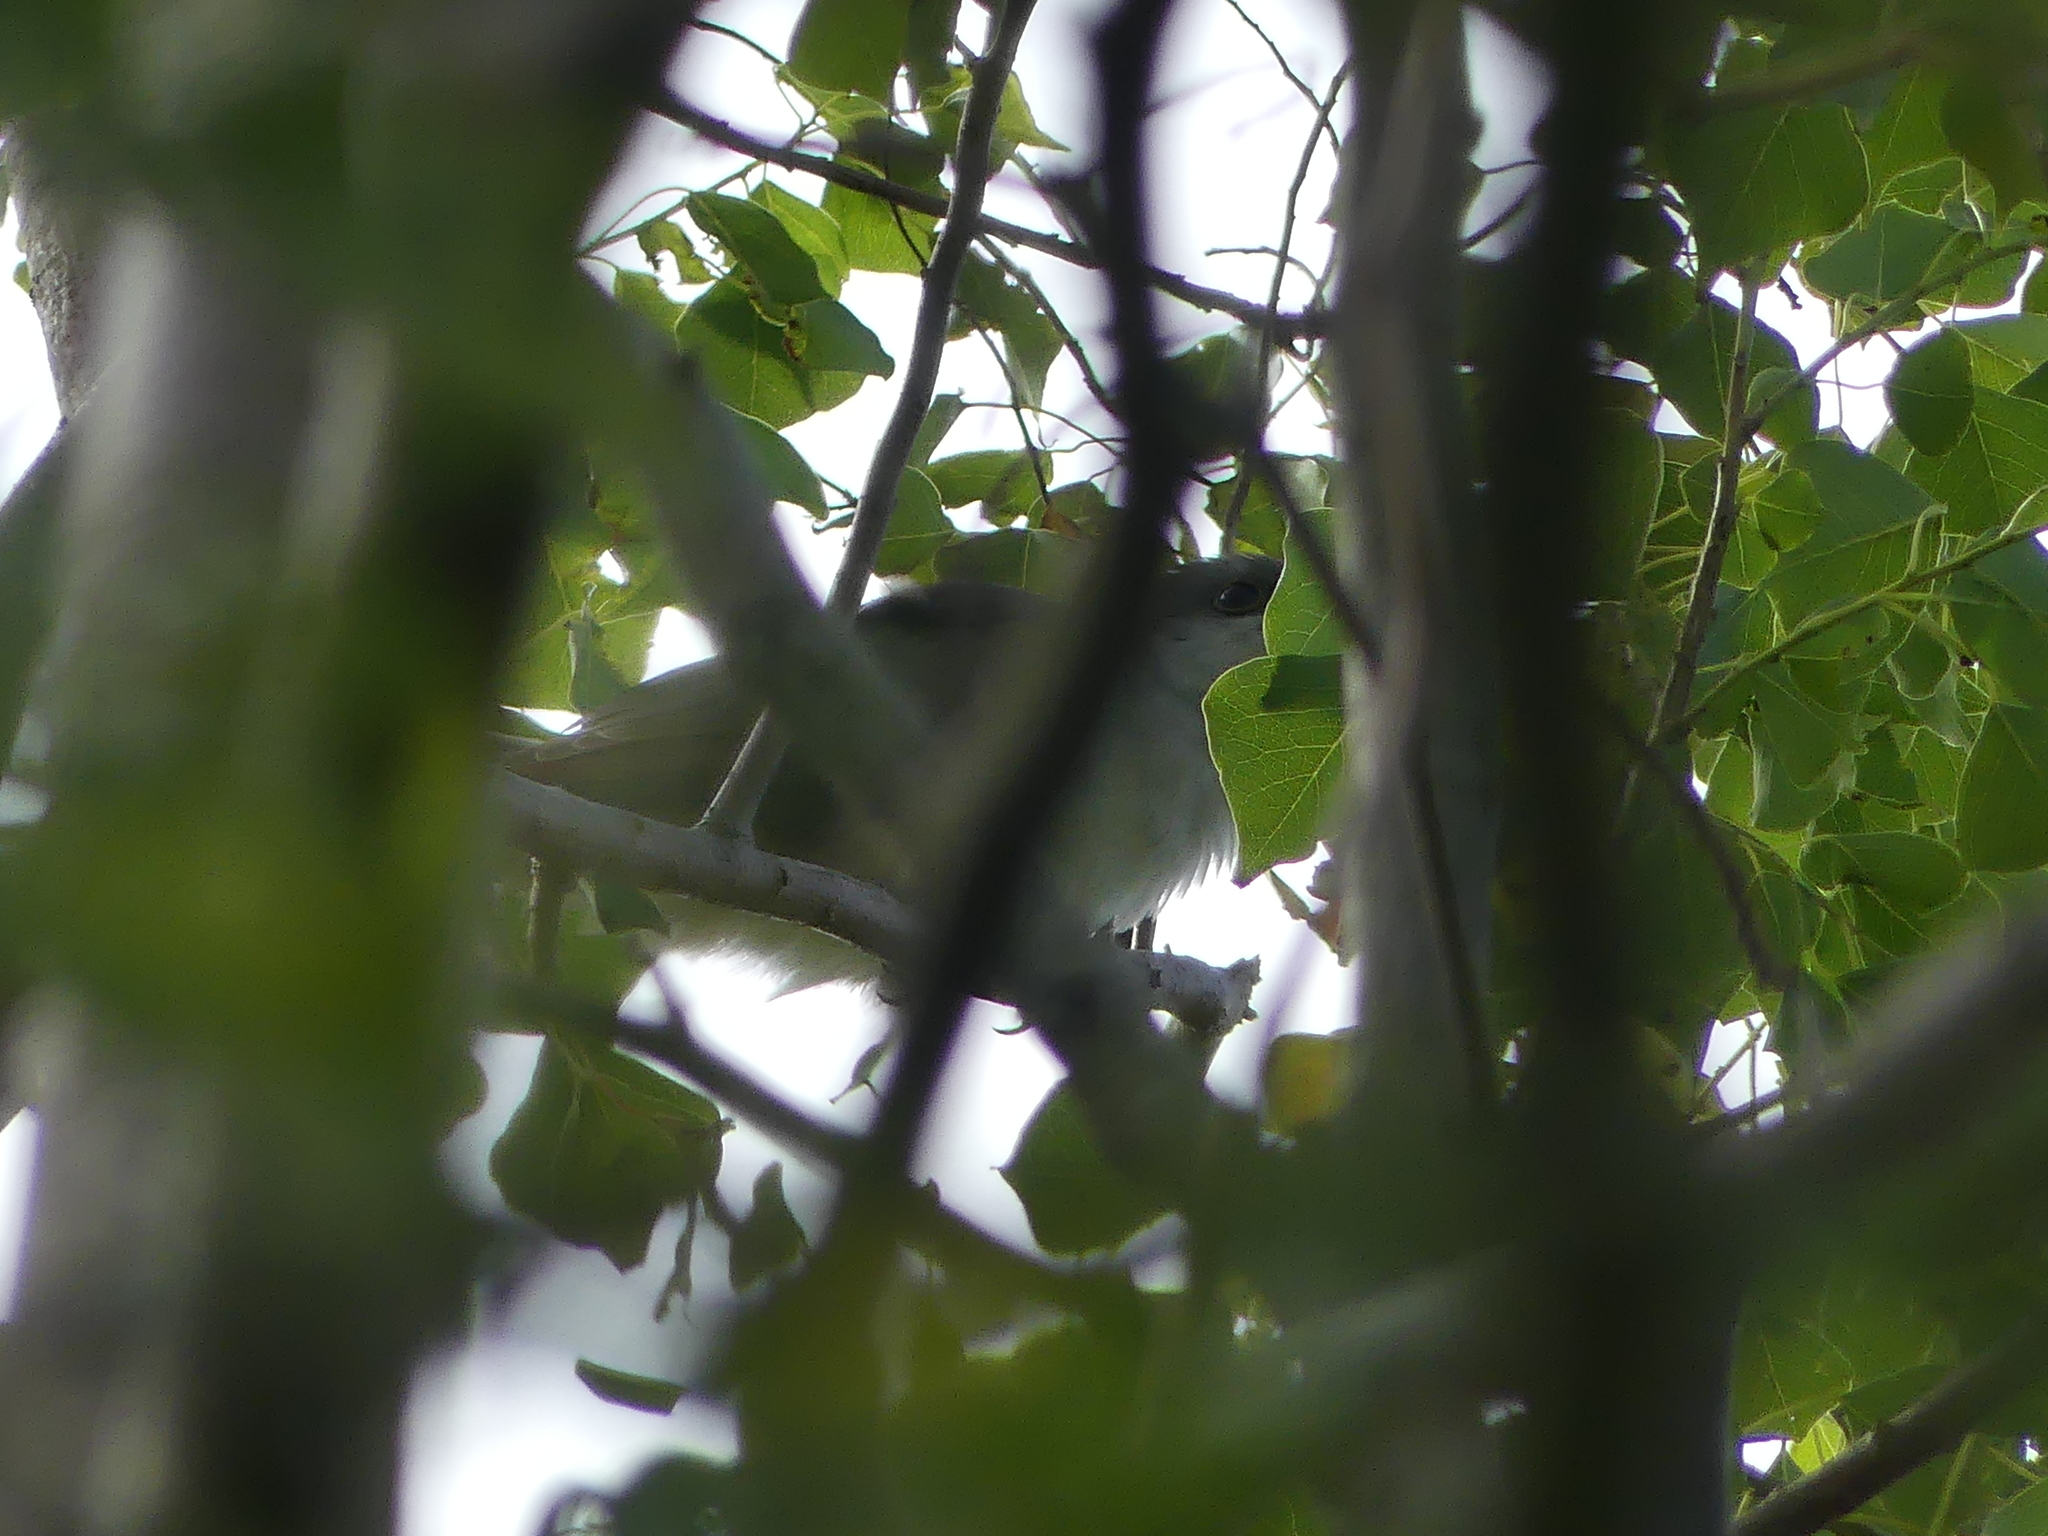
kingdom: Animalia
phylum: Chordata
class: Aves
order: Cuculiformes
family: Cuculidae
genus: Coccyzus
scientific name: Coccyzus americanus
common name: Yellow-billed cuckoo
